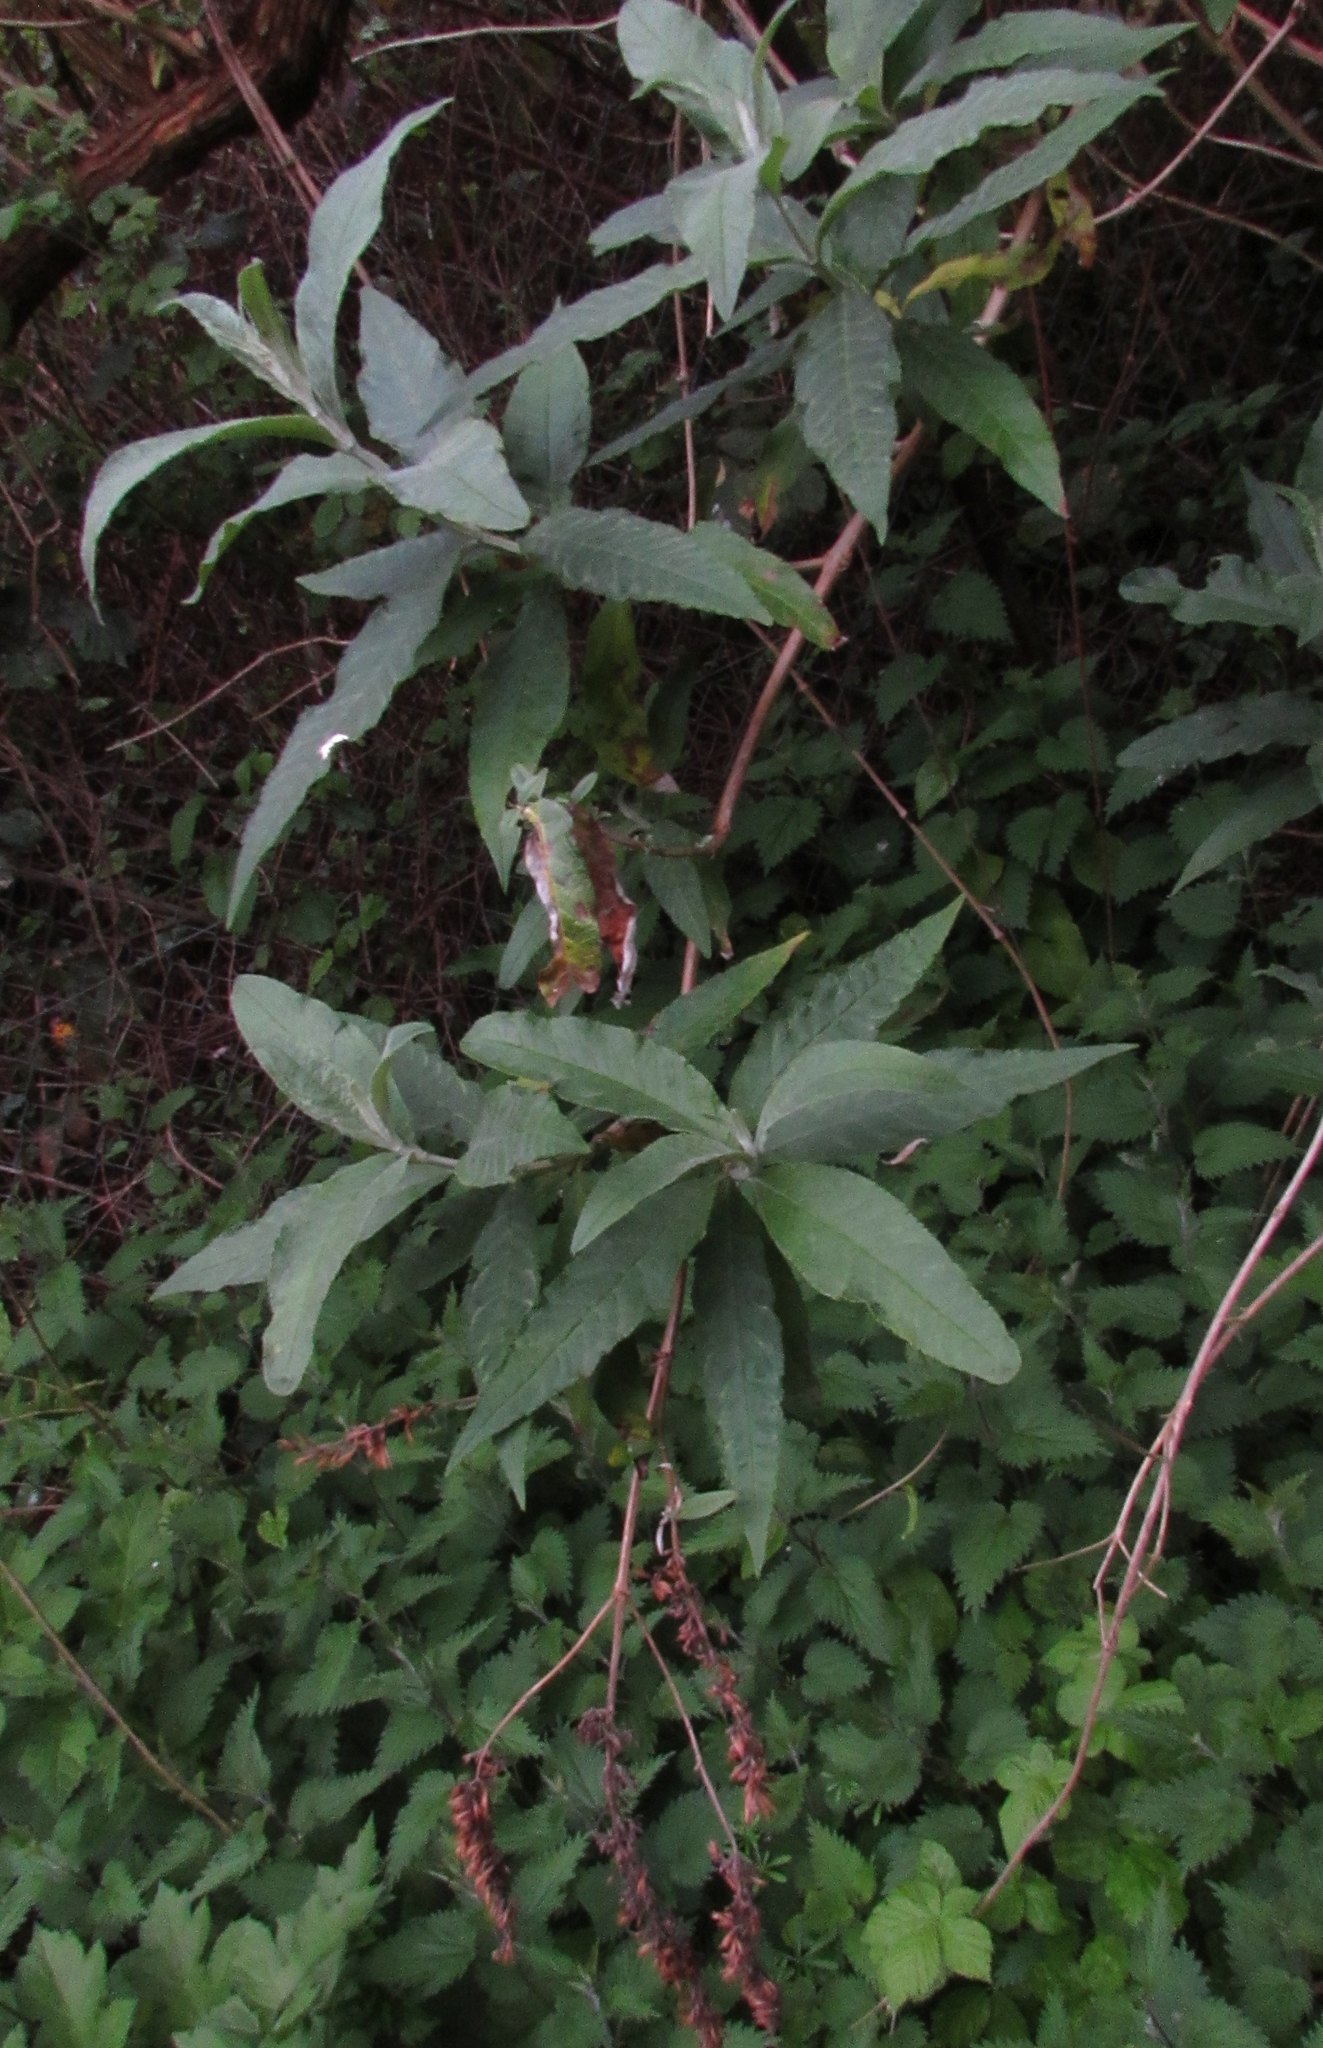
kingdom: Plantae
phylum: Tracheophyta
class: Magnoliopsida
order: Lamiales
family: Scrophulariaceae
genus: Buddleja
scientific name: Buddleja davidii
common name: Butterfly-bush
